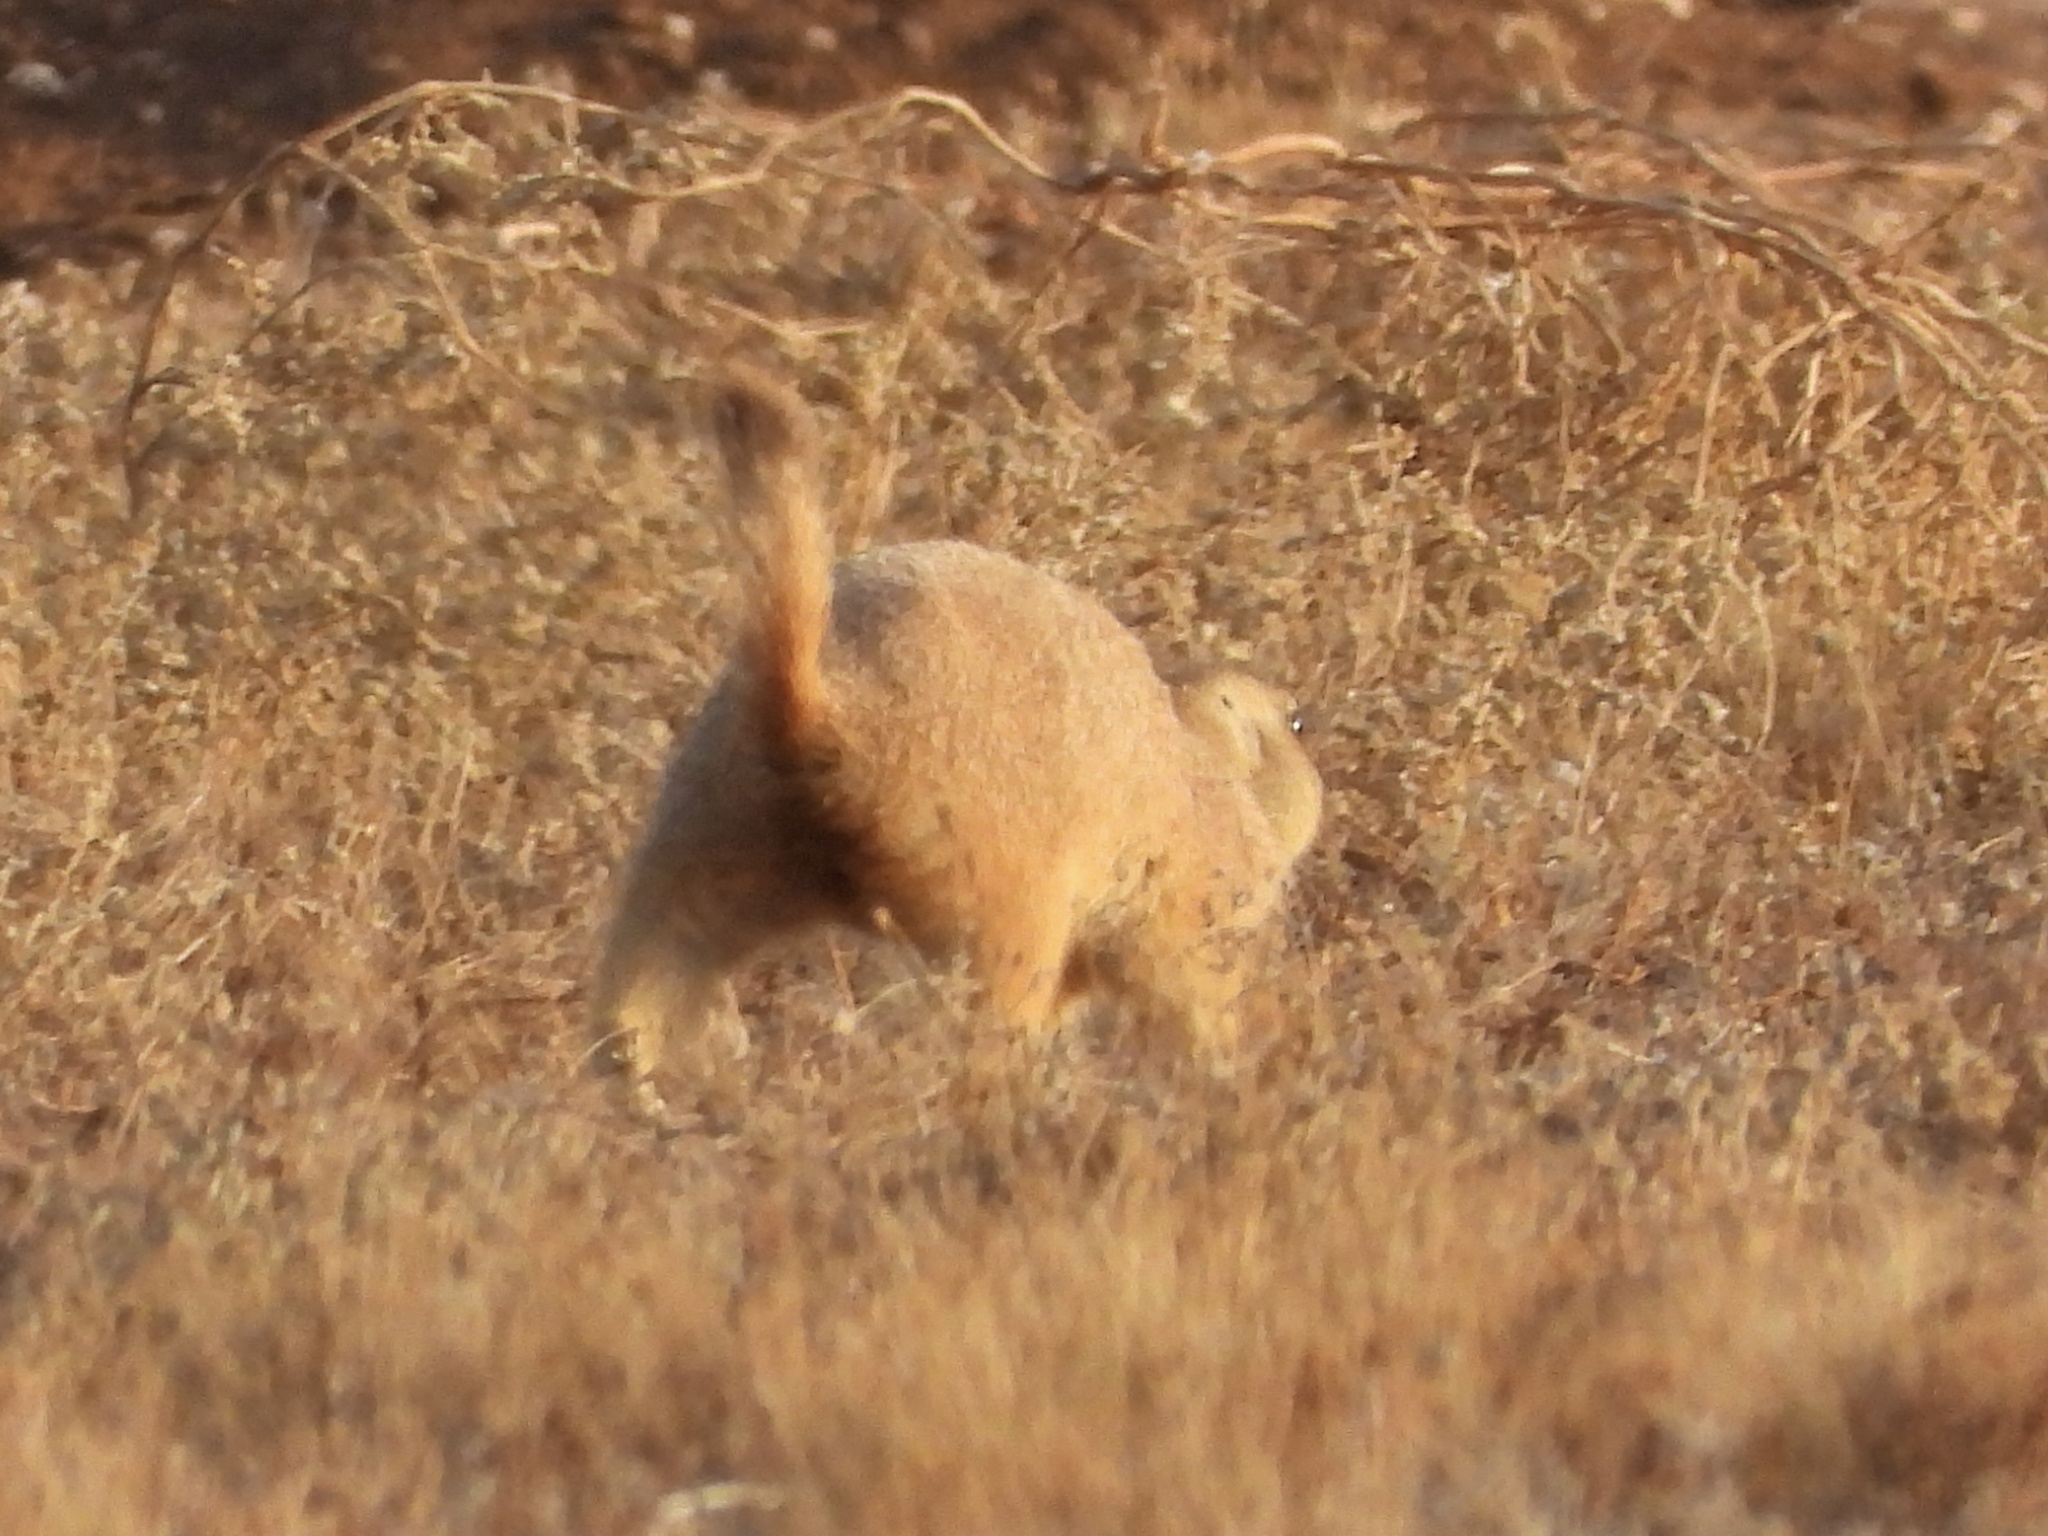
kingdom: Animalia
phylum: Chordata
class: Mammalia
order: Rodentia
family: Sciuridae
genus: Cynomys
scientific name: Cynomys ludovicianus
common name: Black-tailed prairie dog
